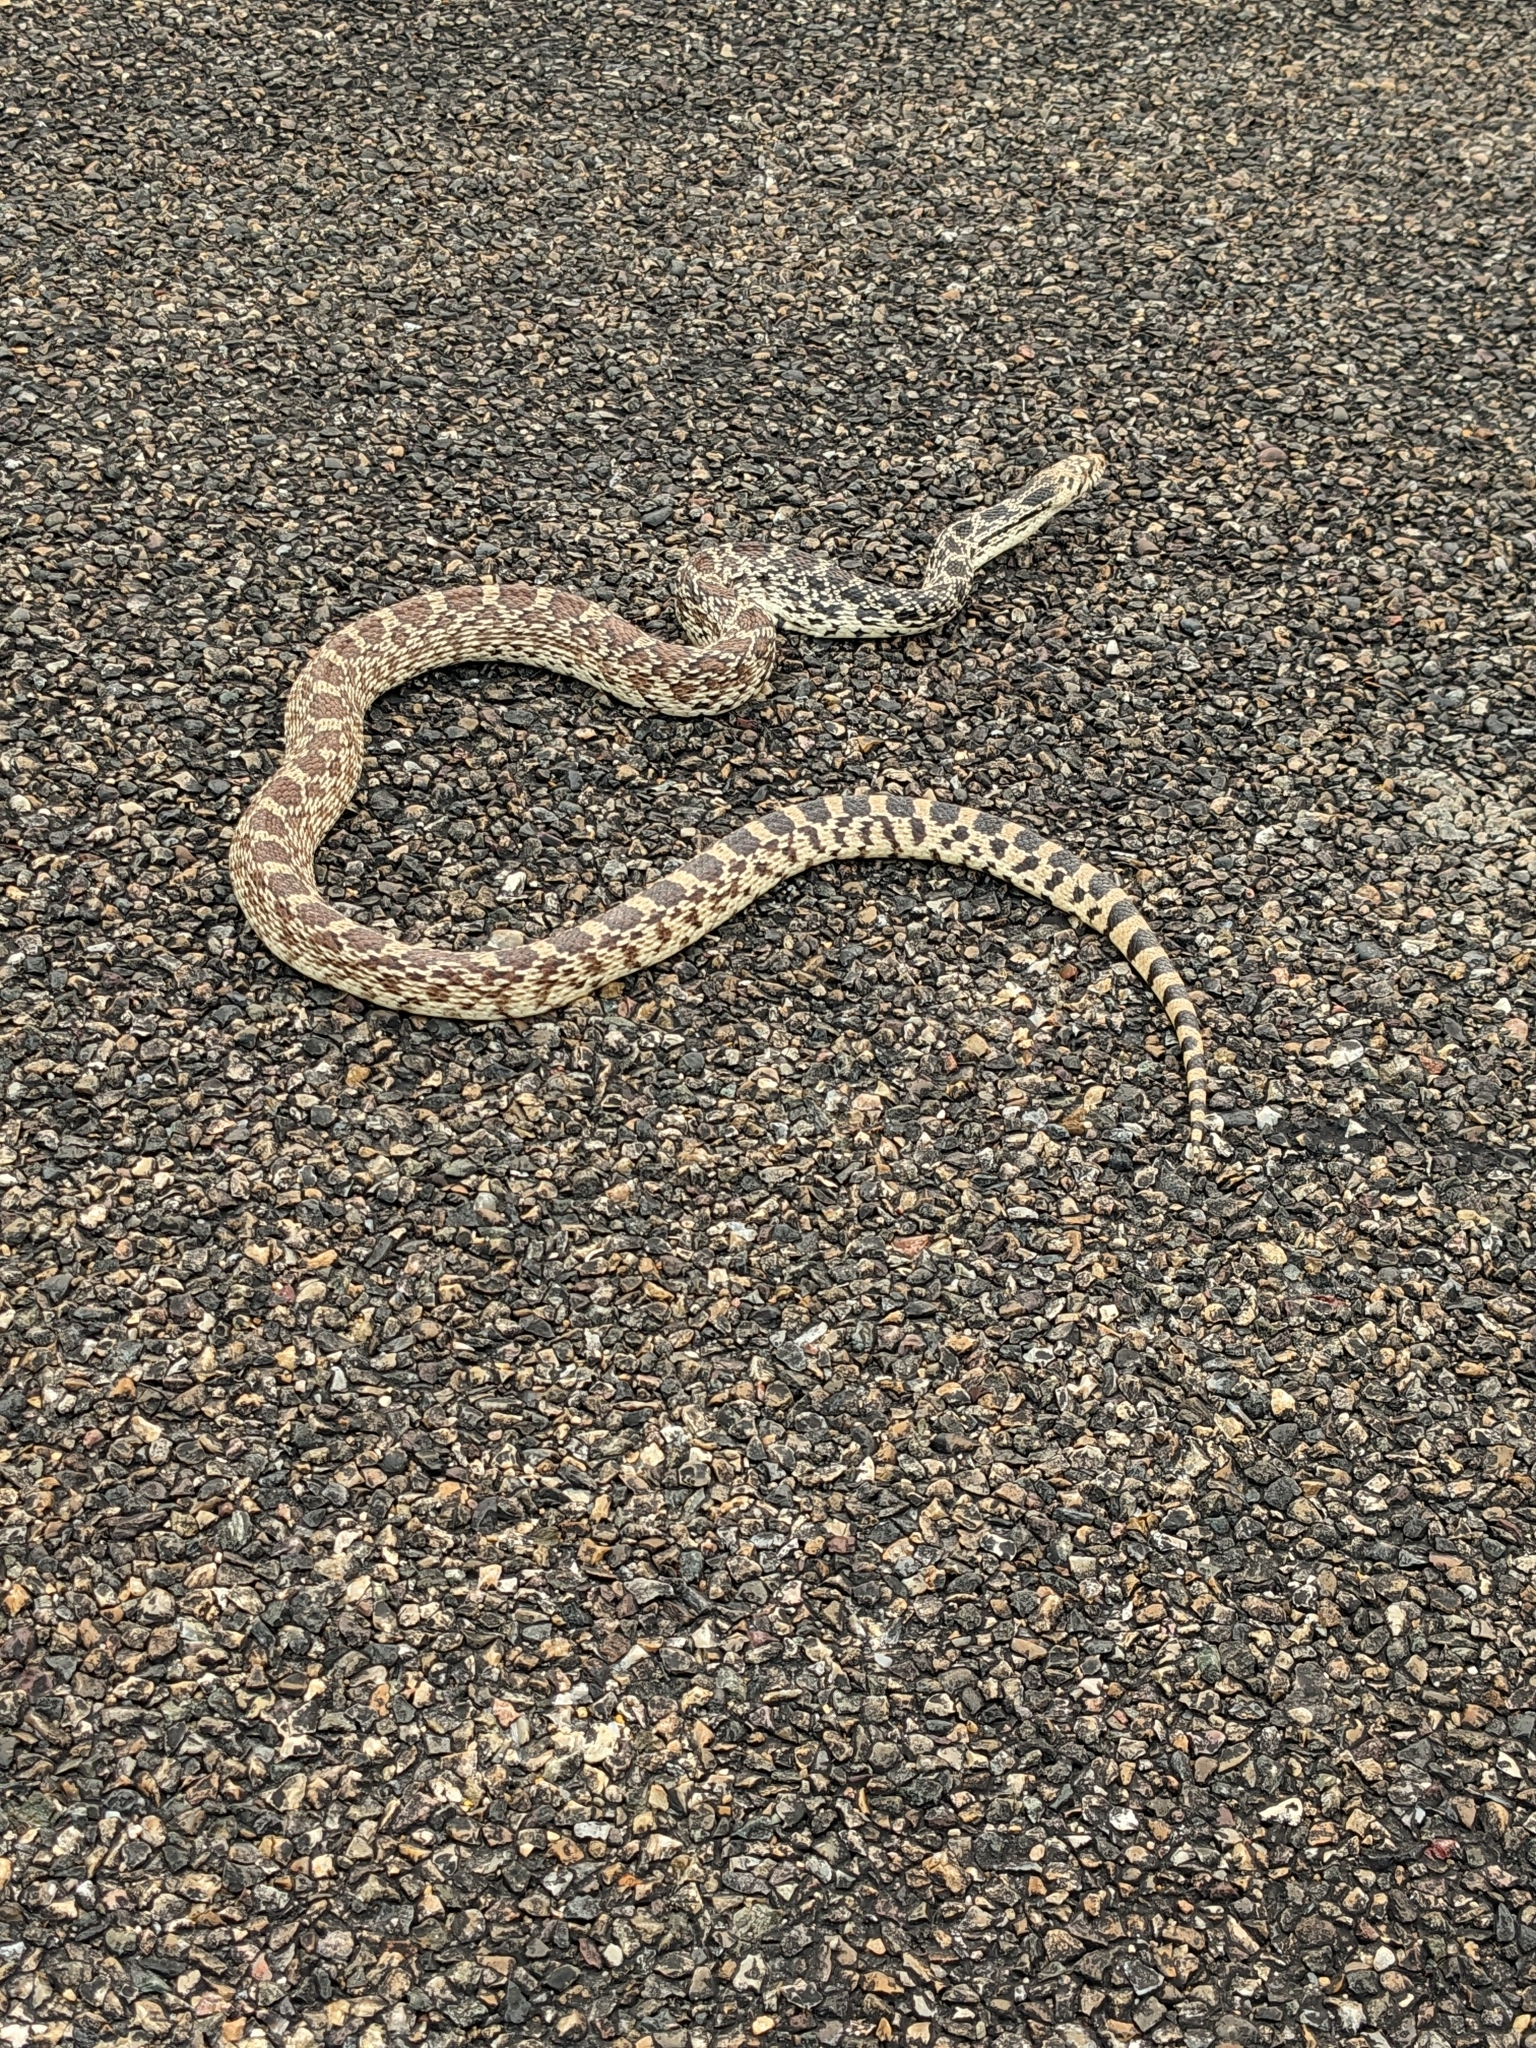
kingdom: Animalia
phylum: Chordata
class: Squamata
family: Colubridae
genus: Pituophis
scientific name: Pituophis catenifer
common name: Gopher snake
